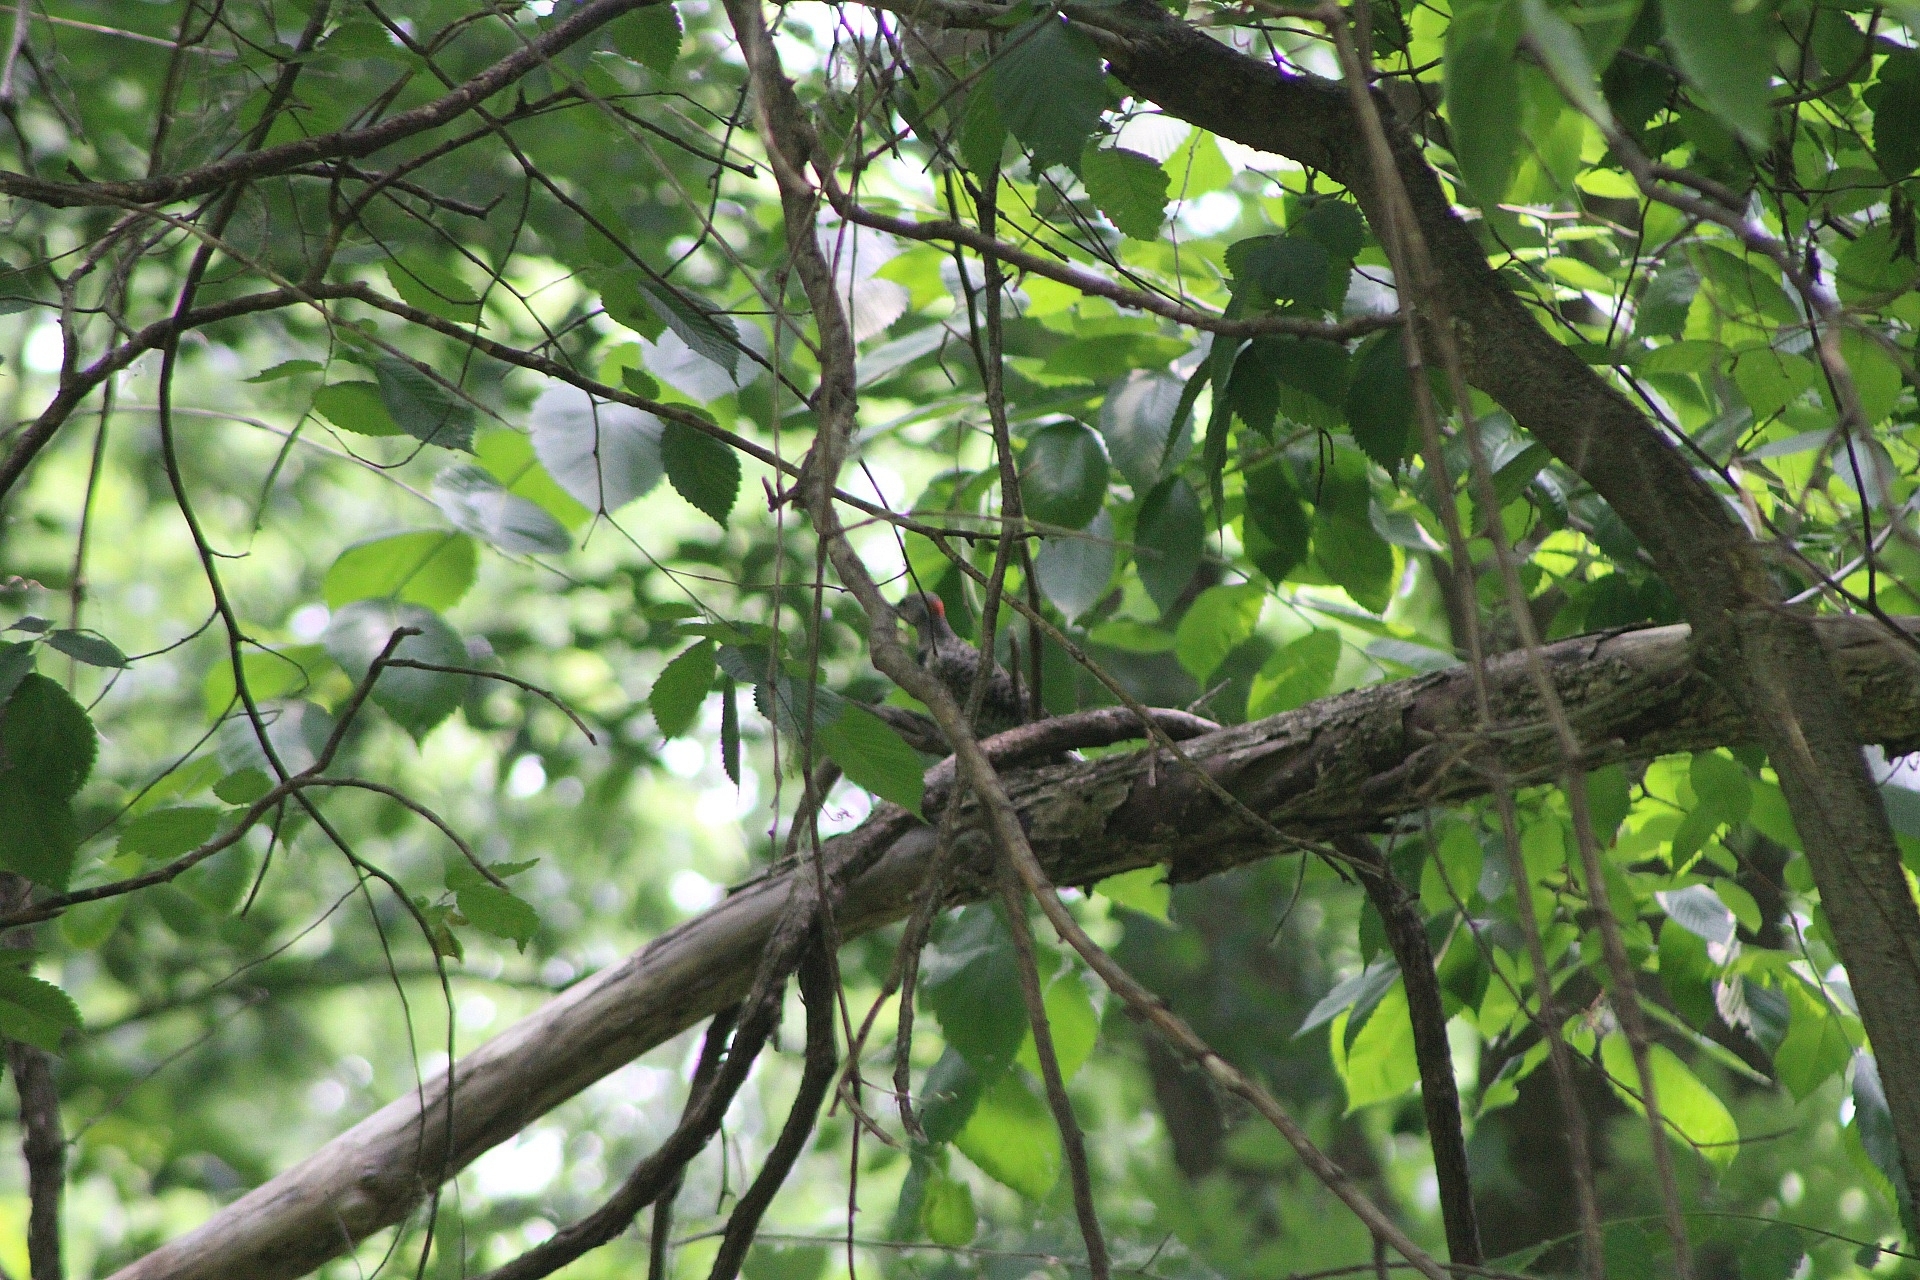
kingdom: Animalia
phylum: Chordata
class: Aves
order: Piciformes
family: Picidae
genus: Colaptes
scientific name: Colaptes auratus
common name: Northern flicker
